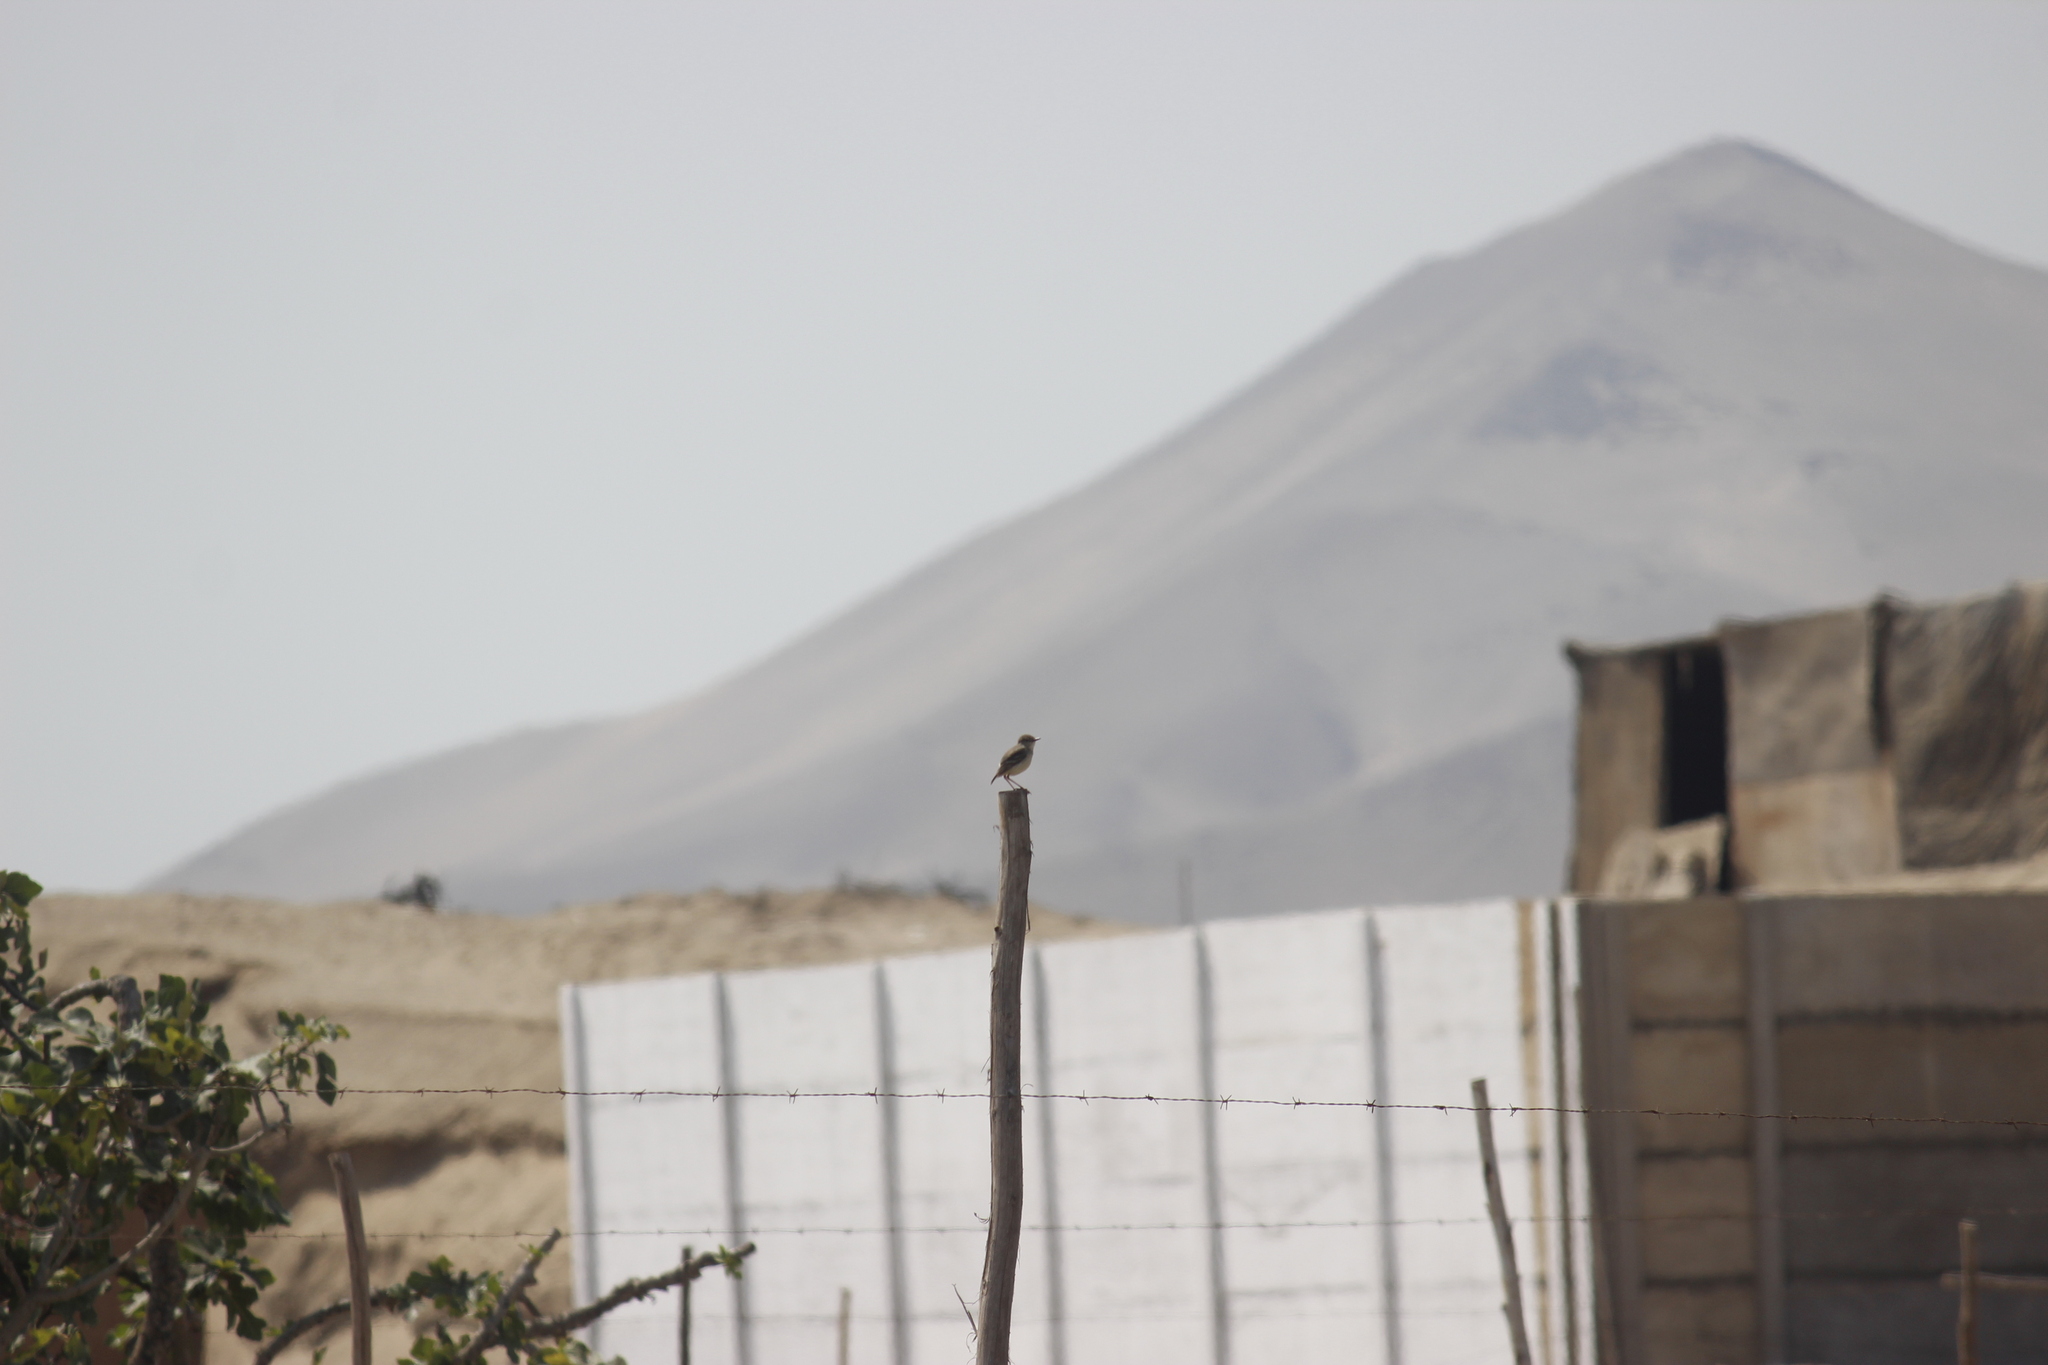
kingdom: Animalia
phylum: Chordata
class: Aves
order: Passeriformes
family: Tyrannidae
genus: Muscigralla
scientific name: Muscigralla brevicauda
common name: Short-tailed field tyrant
